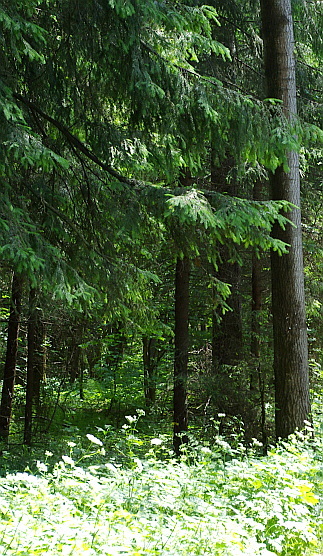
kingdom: Plantae
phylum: Tracheophyta
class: Pinopsida
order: Pinales
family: Pinaceae
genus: Picea
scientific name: Picea abies
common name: Norway spruce
